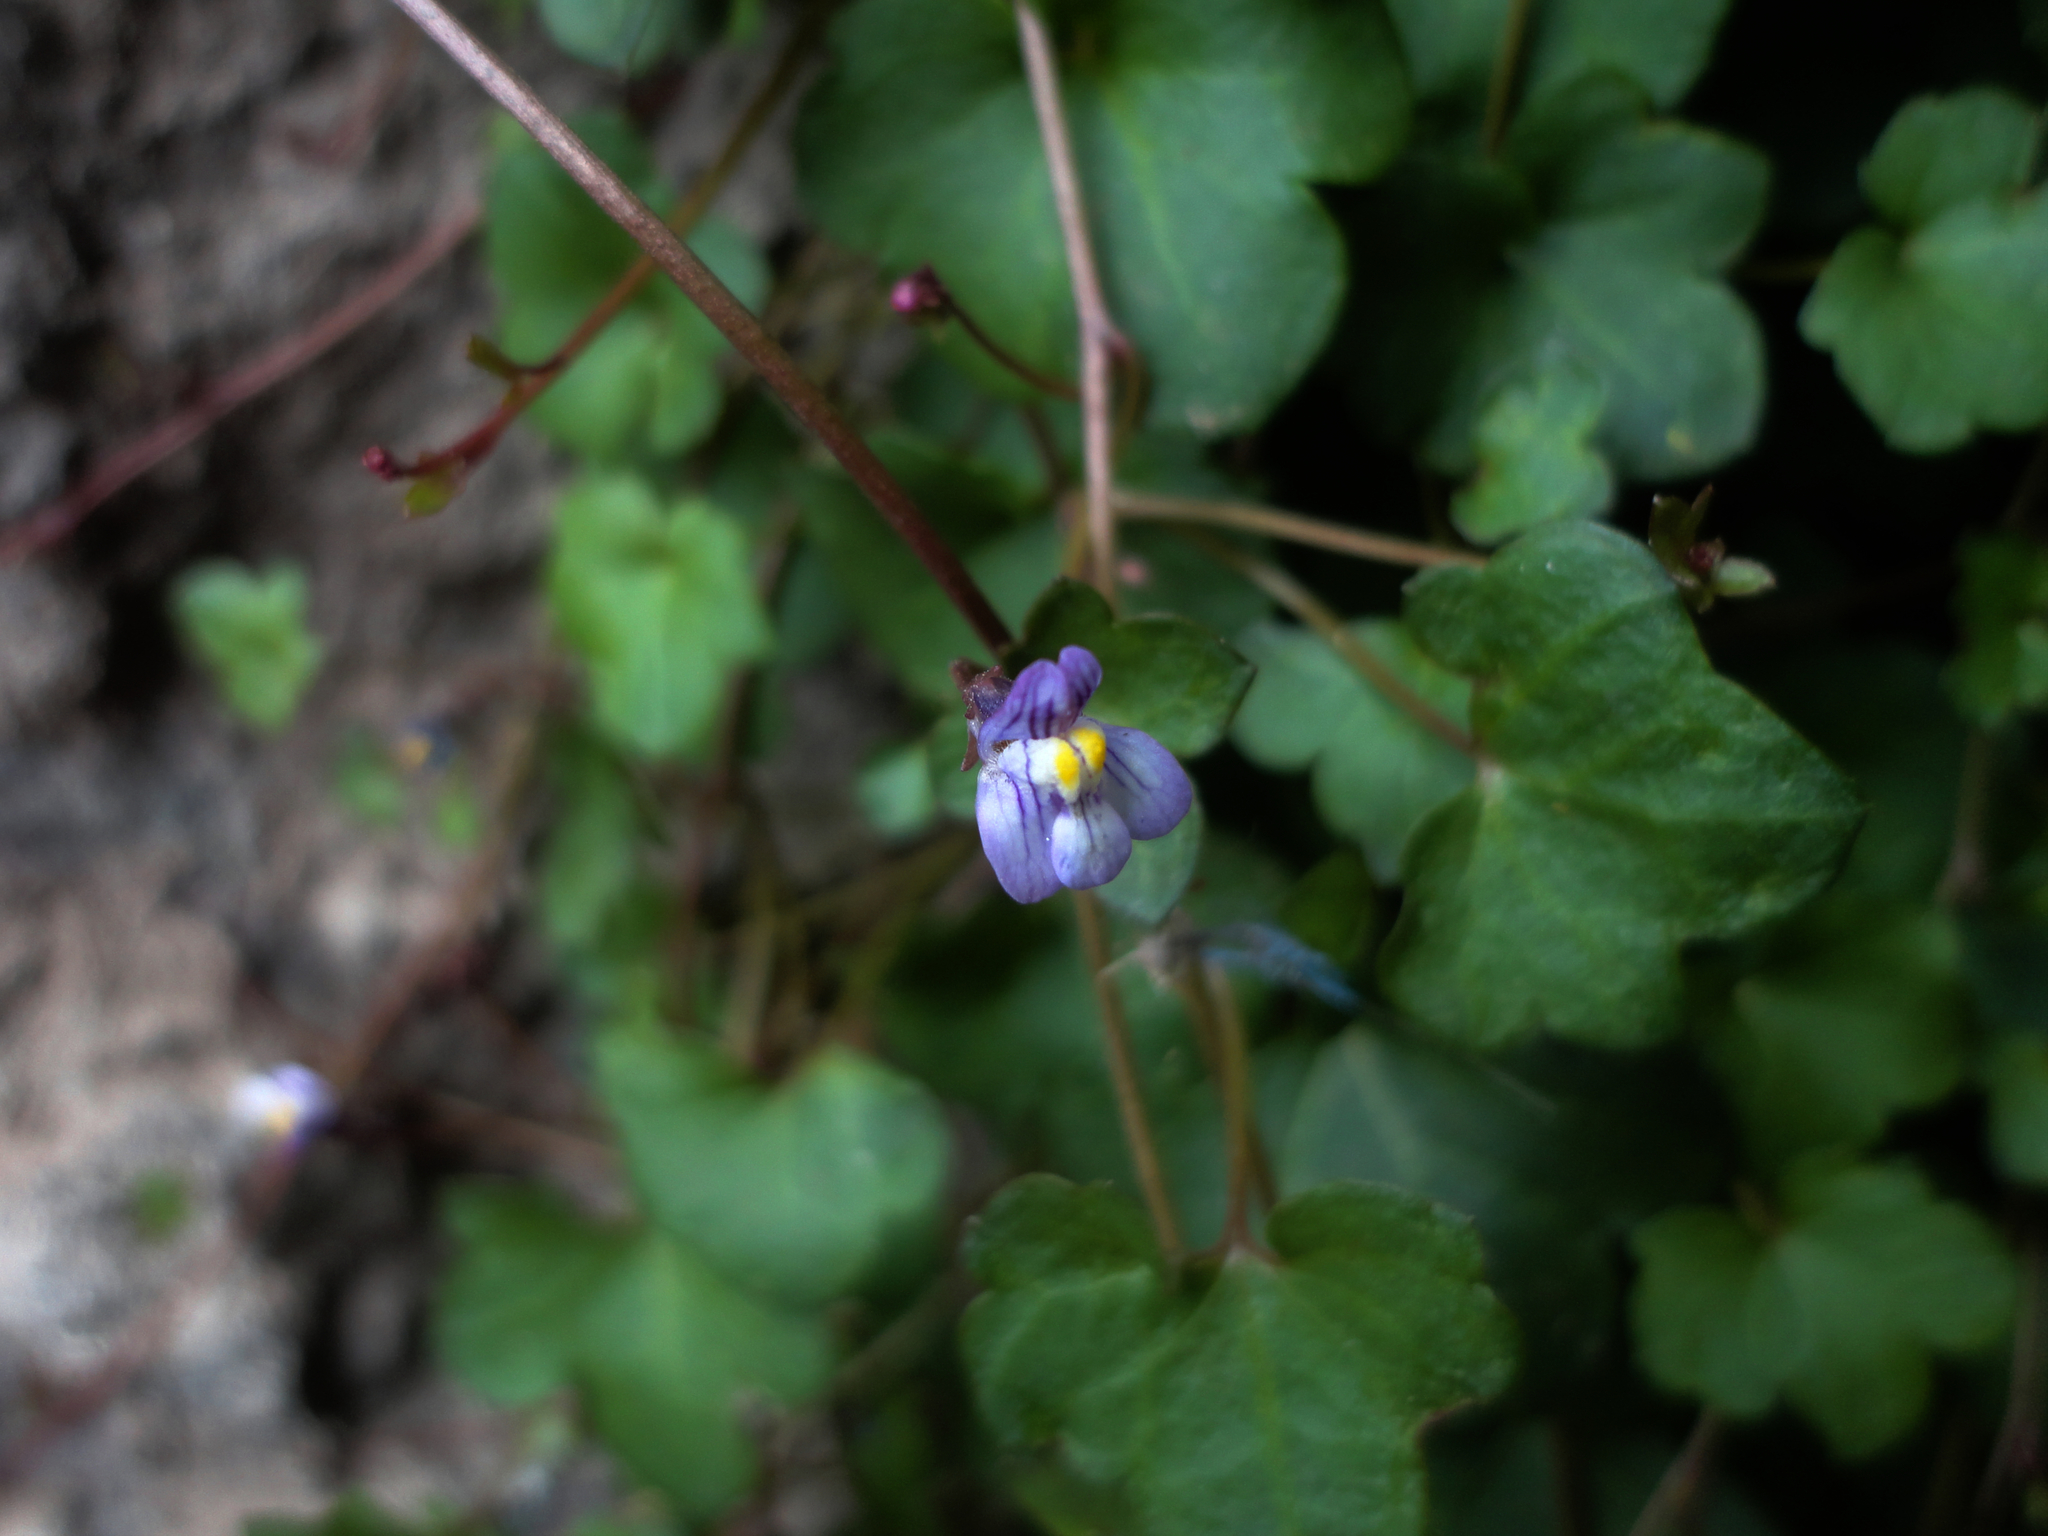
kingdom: Plantae
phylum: Tracheophyta
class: Magnoliopsida
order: Lamiales
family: Plantaginaceae
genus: Cymbalaria
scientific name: Cymbalaria muralis
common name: Ivy-leaved toadflax
